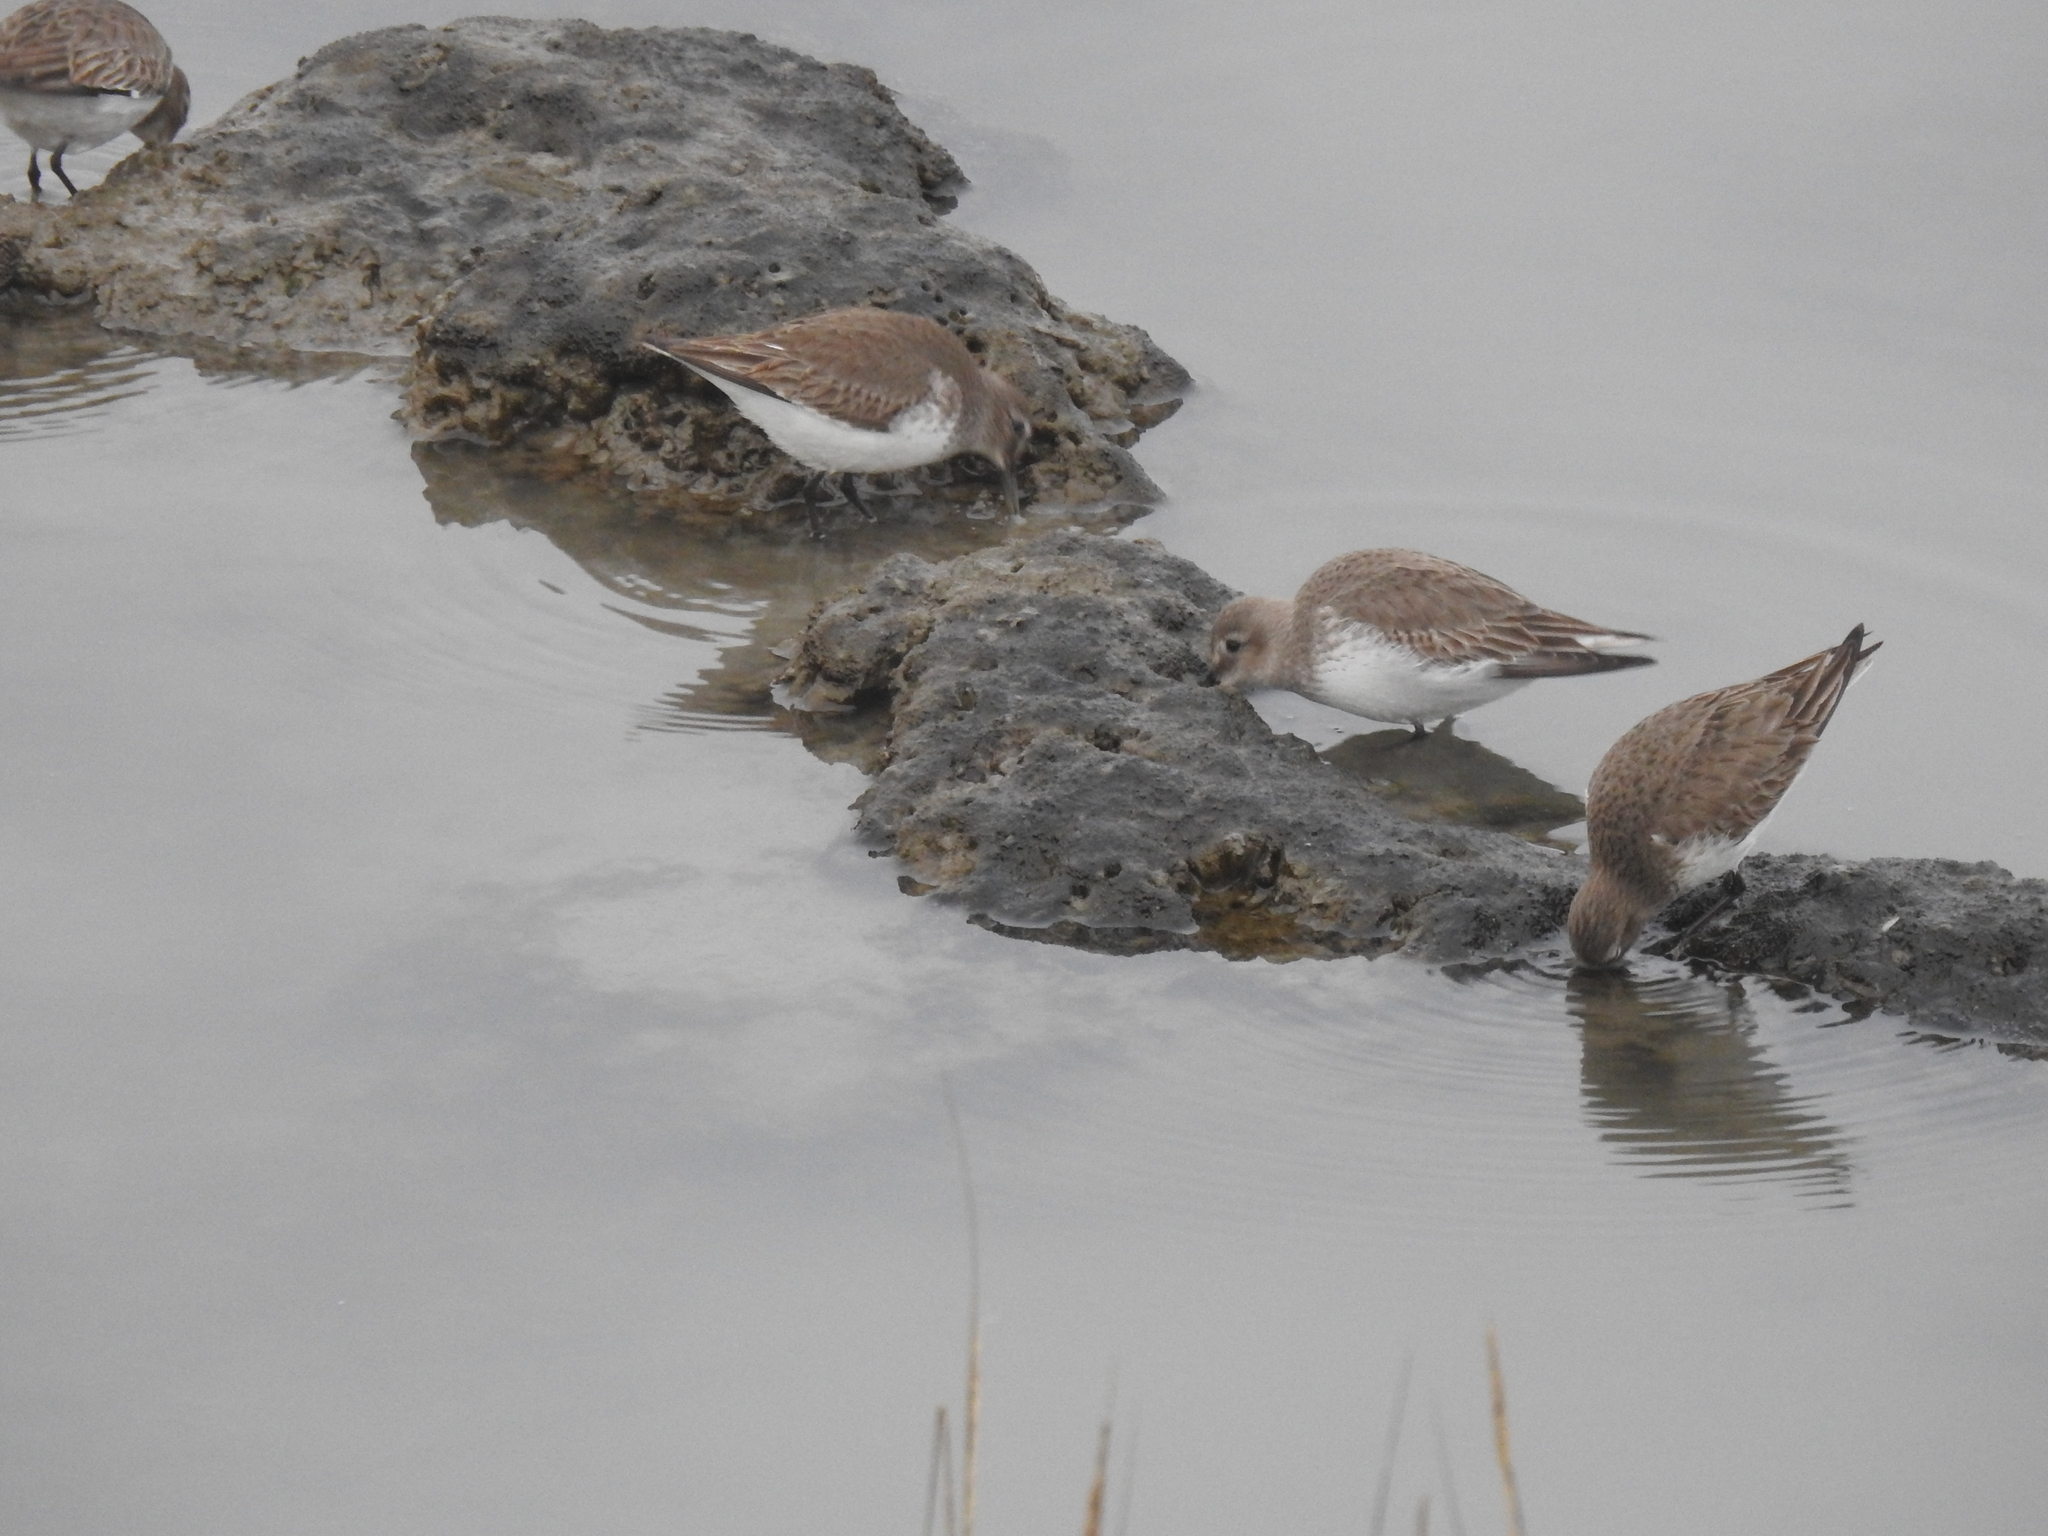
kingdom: Animalia
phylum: Chordata
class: Aves
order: Charadriiformes
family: Scolopacidae
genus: Calidris
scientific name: Calidris alpina
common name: Dunlin
